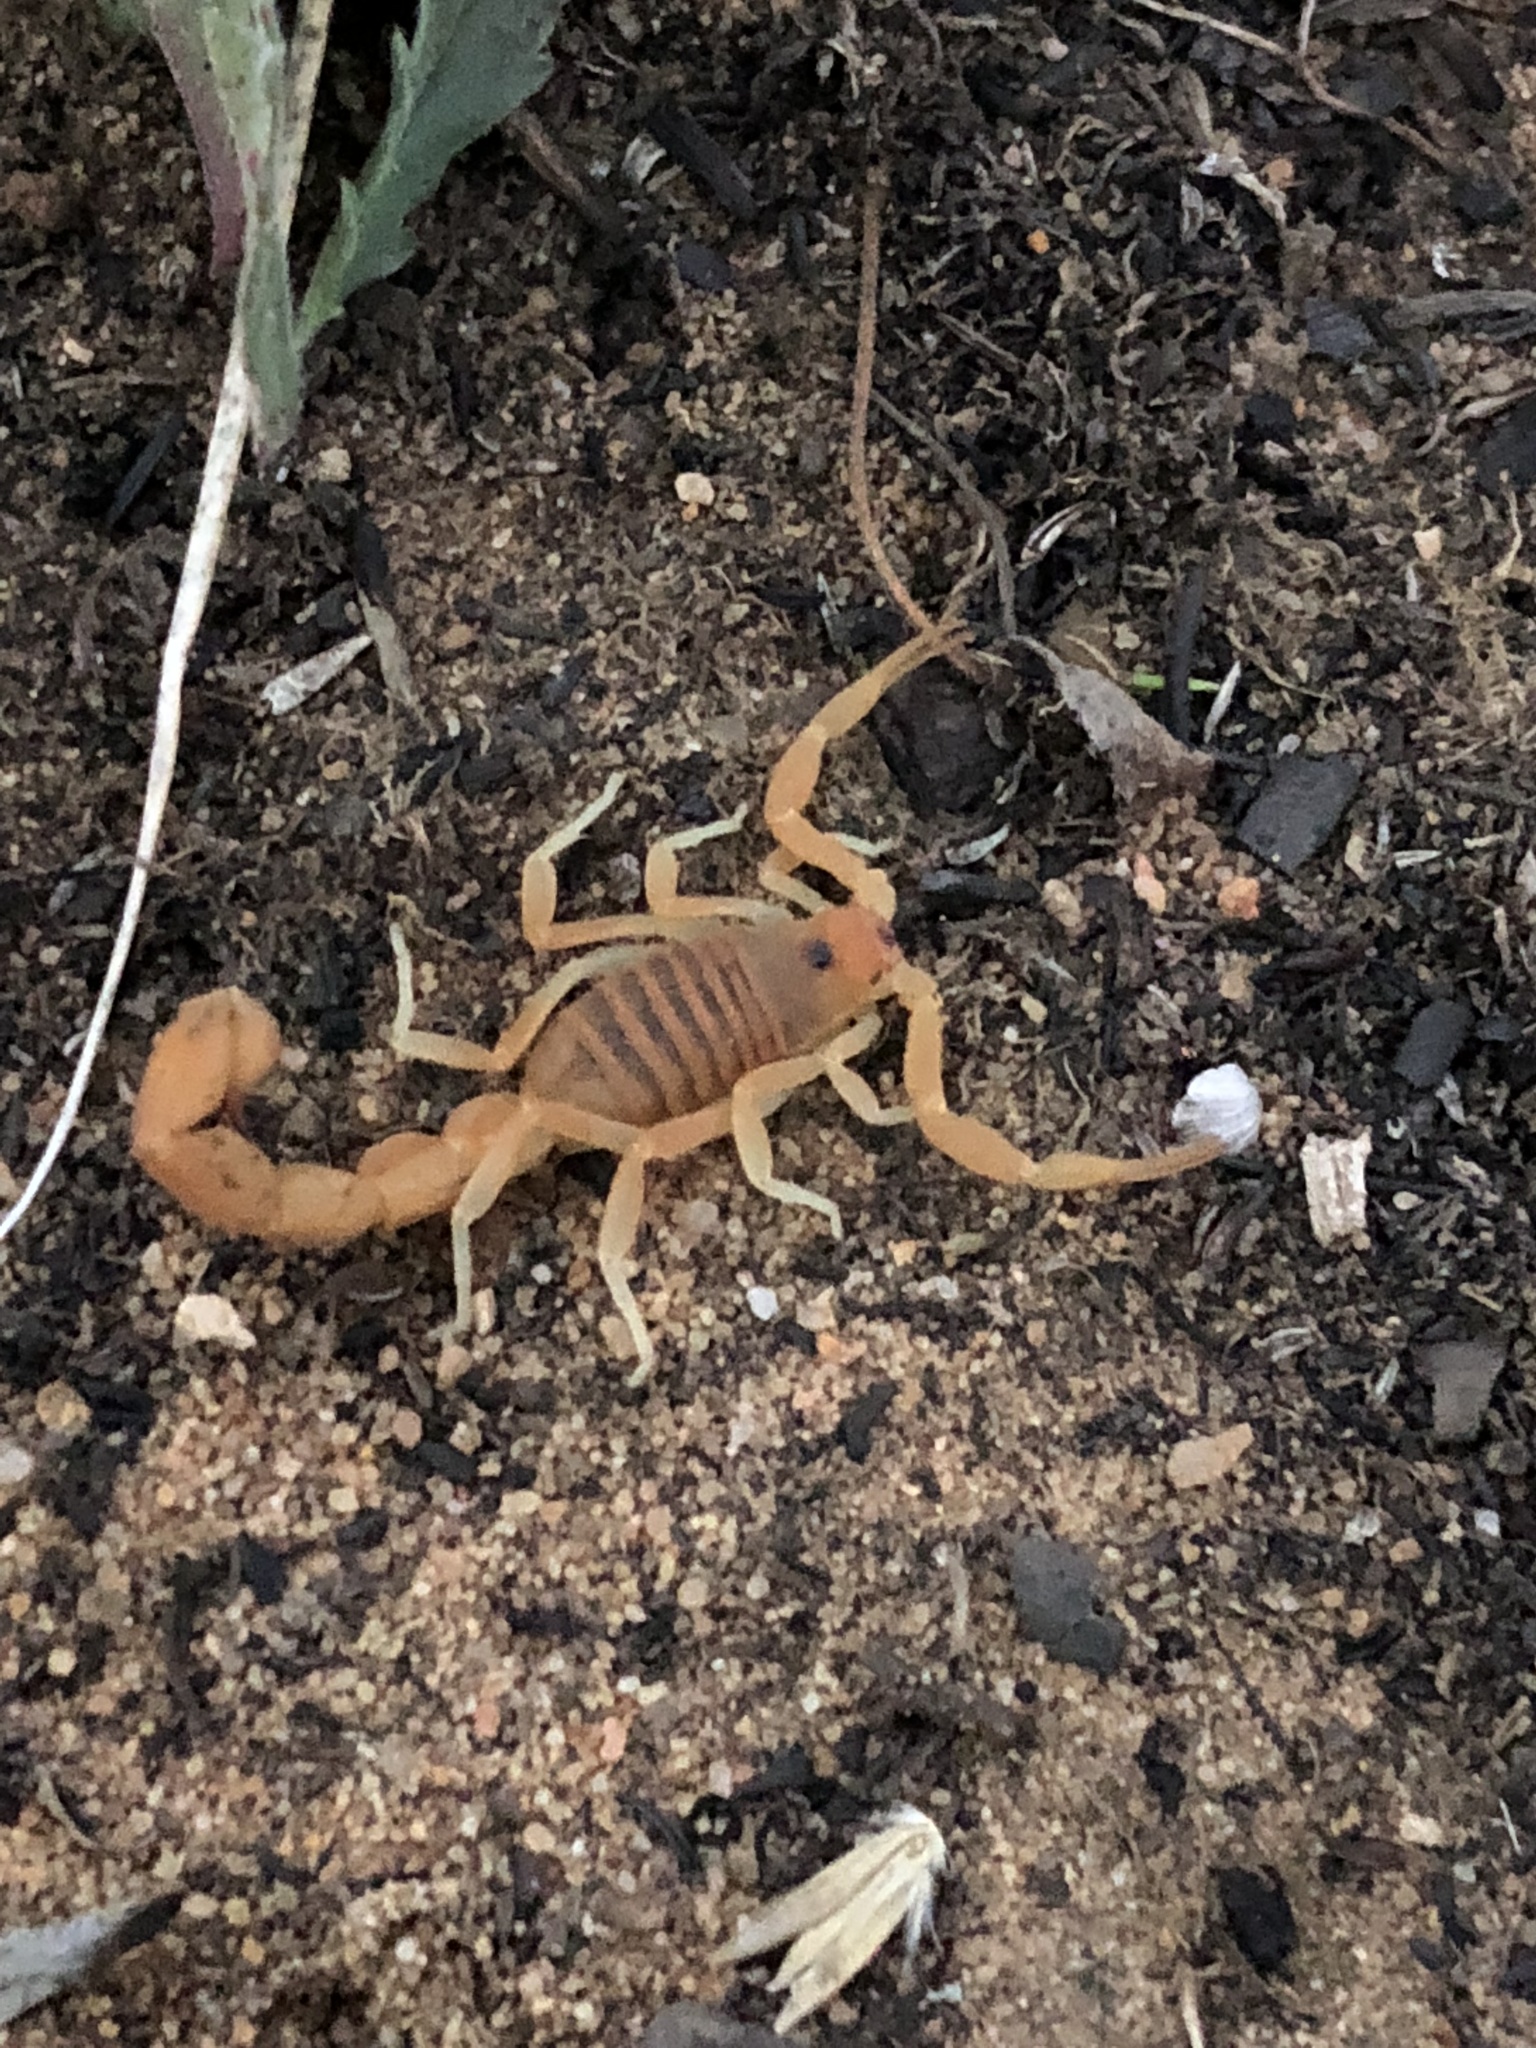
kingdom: Animalia
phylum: Arthropoda
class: Arachnida
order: Scorpiones
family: Buthidae
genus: Parabuthus
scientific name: Parabuthus planicauda
